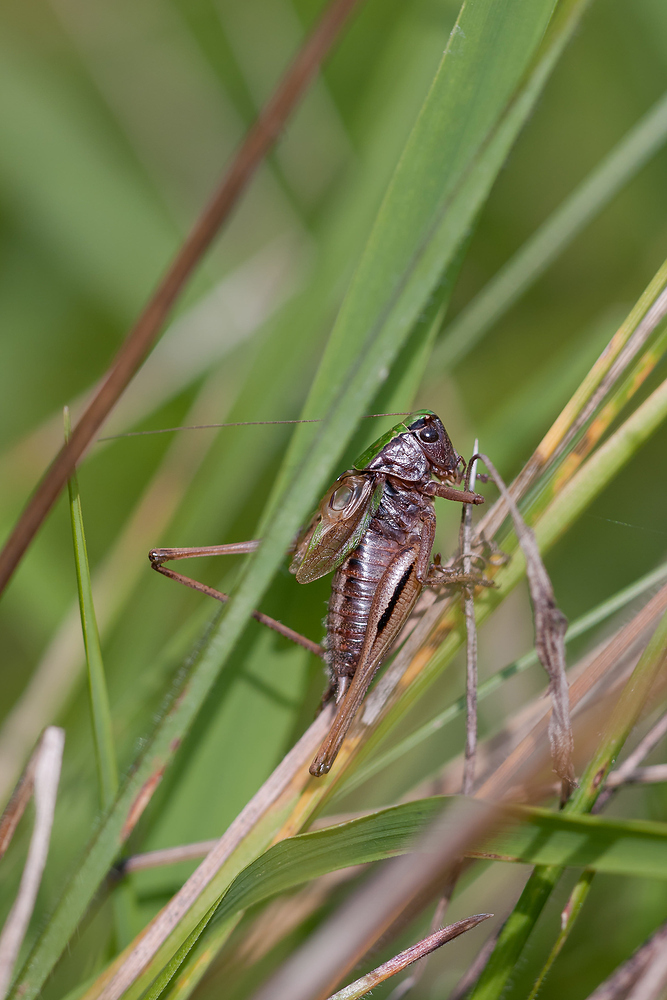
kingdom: Animalia
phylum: Arthropoda
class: Insecta
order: Orthoptera
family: Tettigoniidae
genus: Metrioptera
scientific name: Metrioptera brachyptera
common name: Bog bush-cricket
